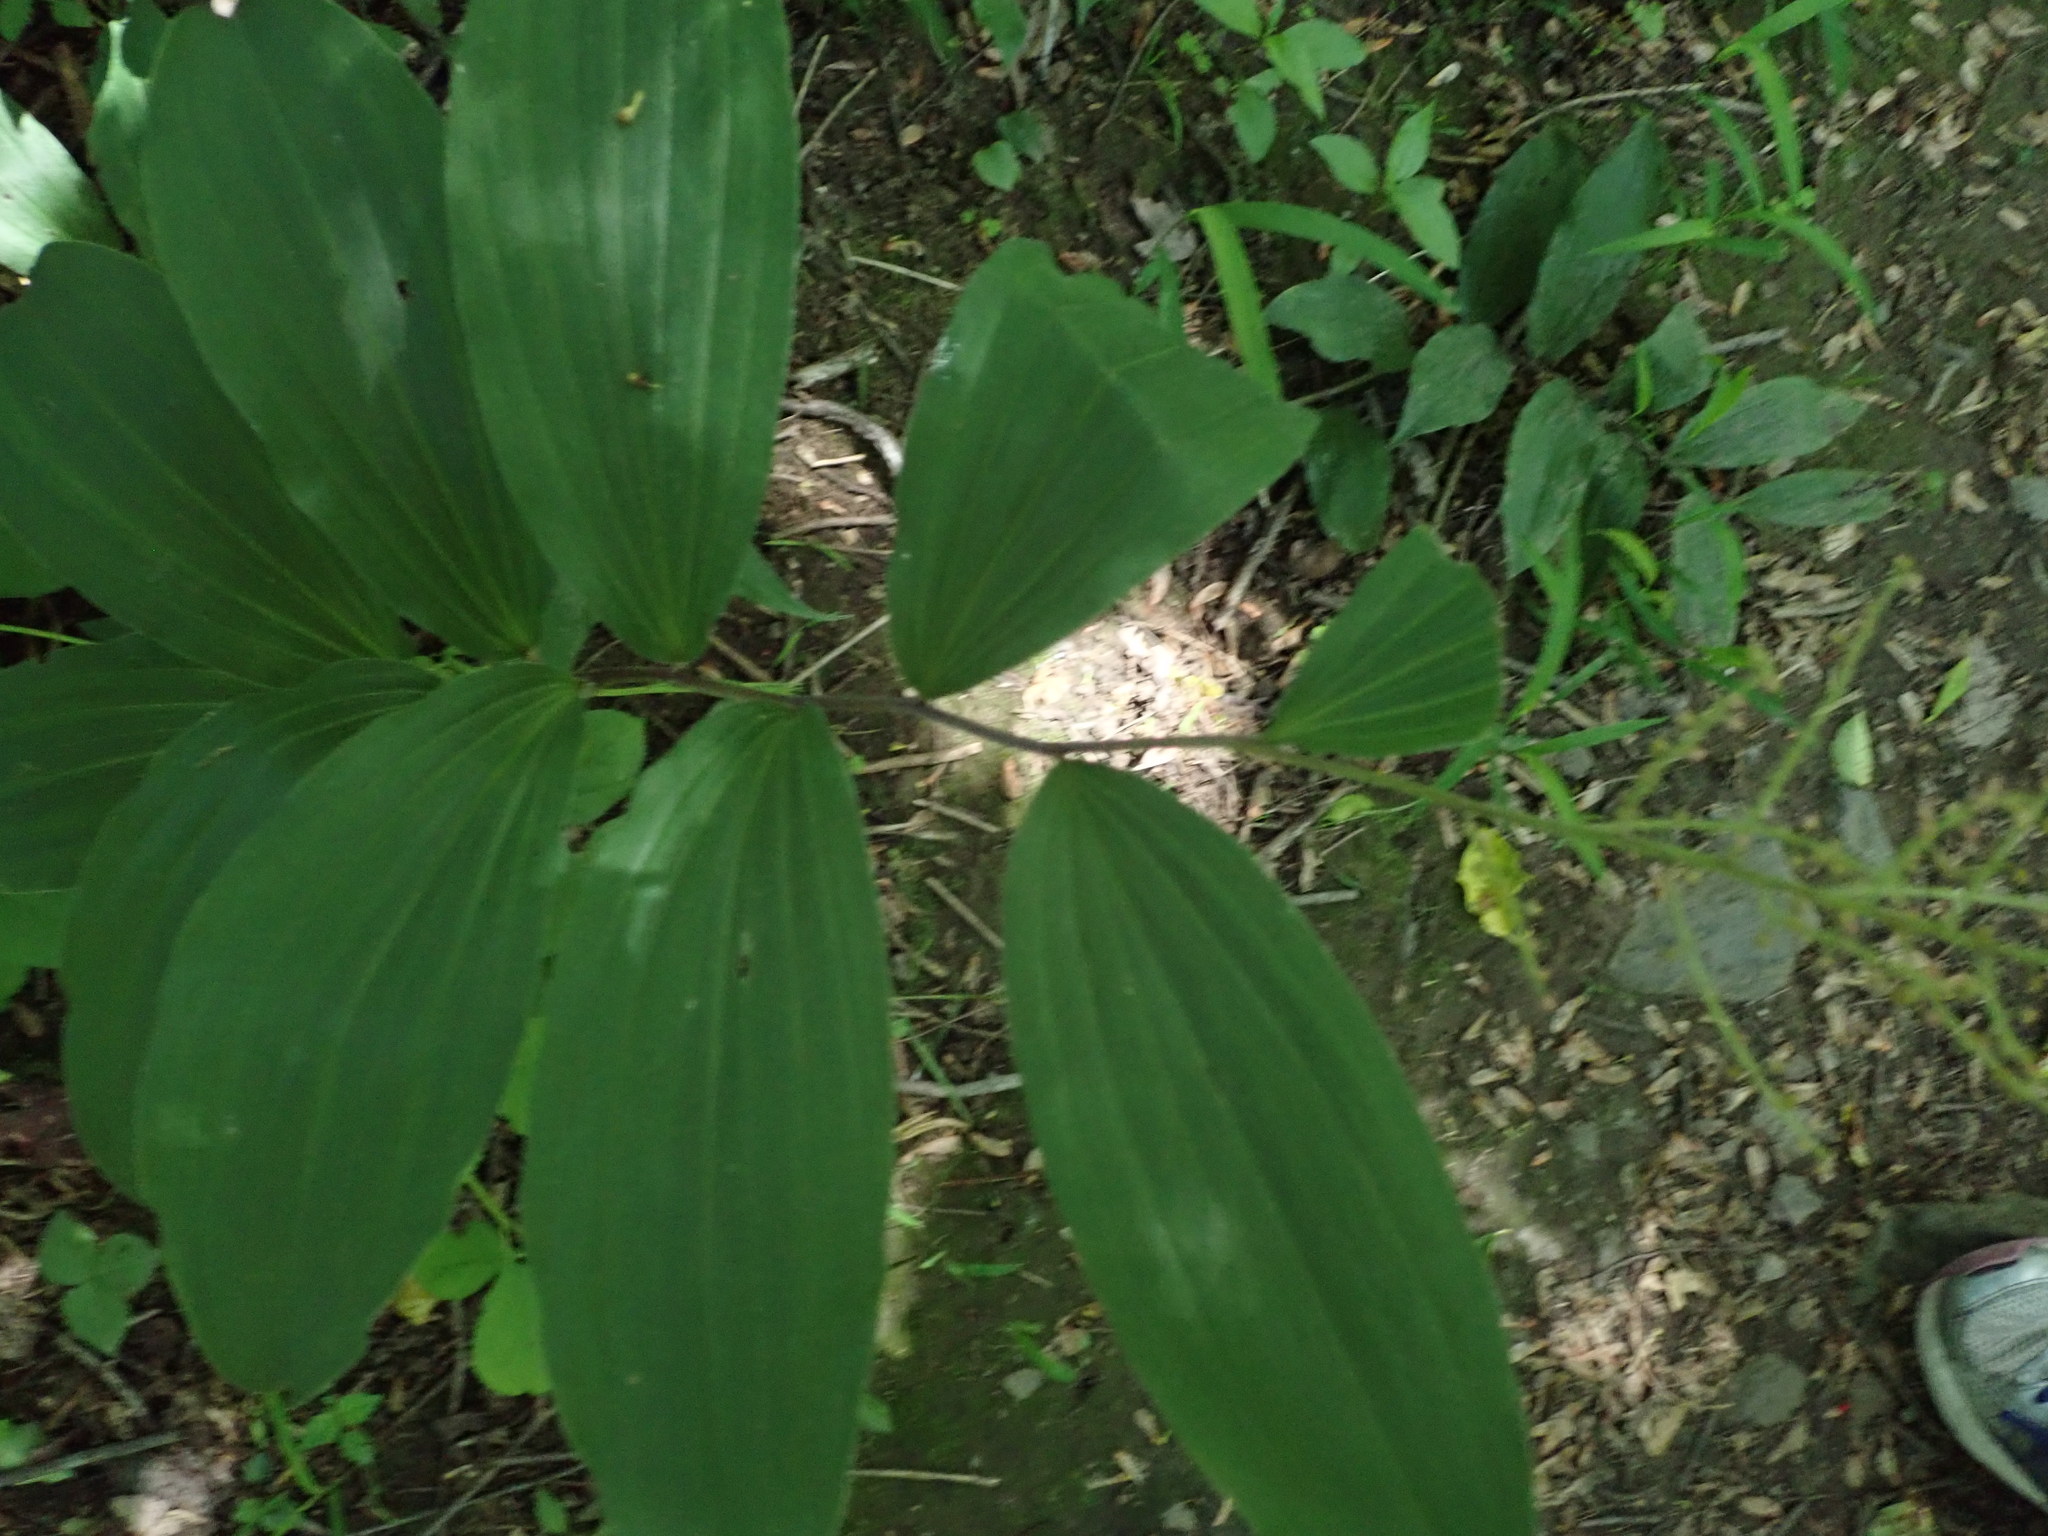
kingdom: Plantae
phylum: Tracheophyta
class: Liliopsida
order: Asparagales
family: Asparagaceae
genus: Maianthemum
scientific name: Maianthemum racemosum
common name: False spikenard
